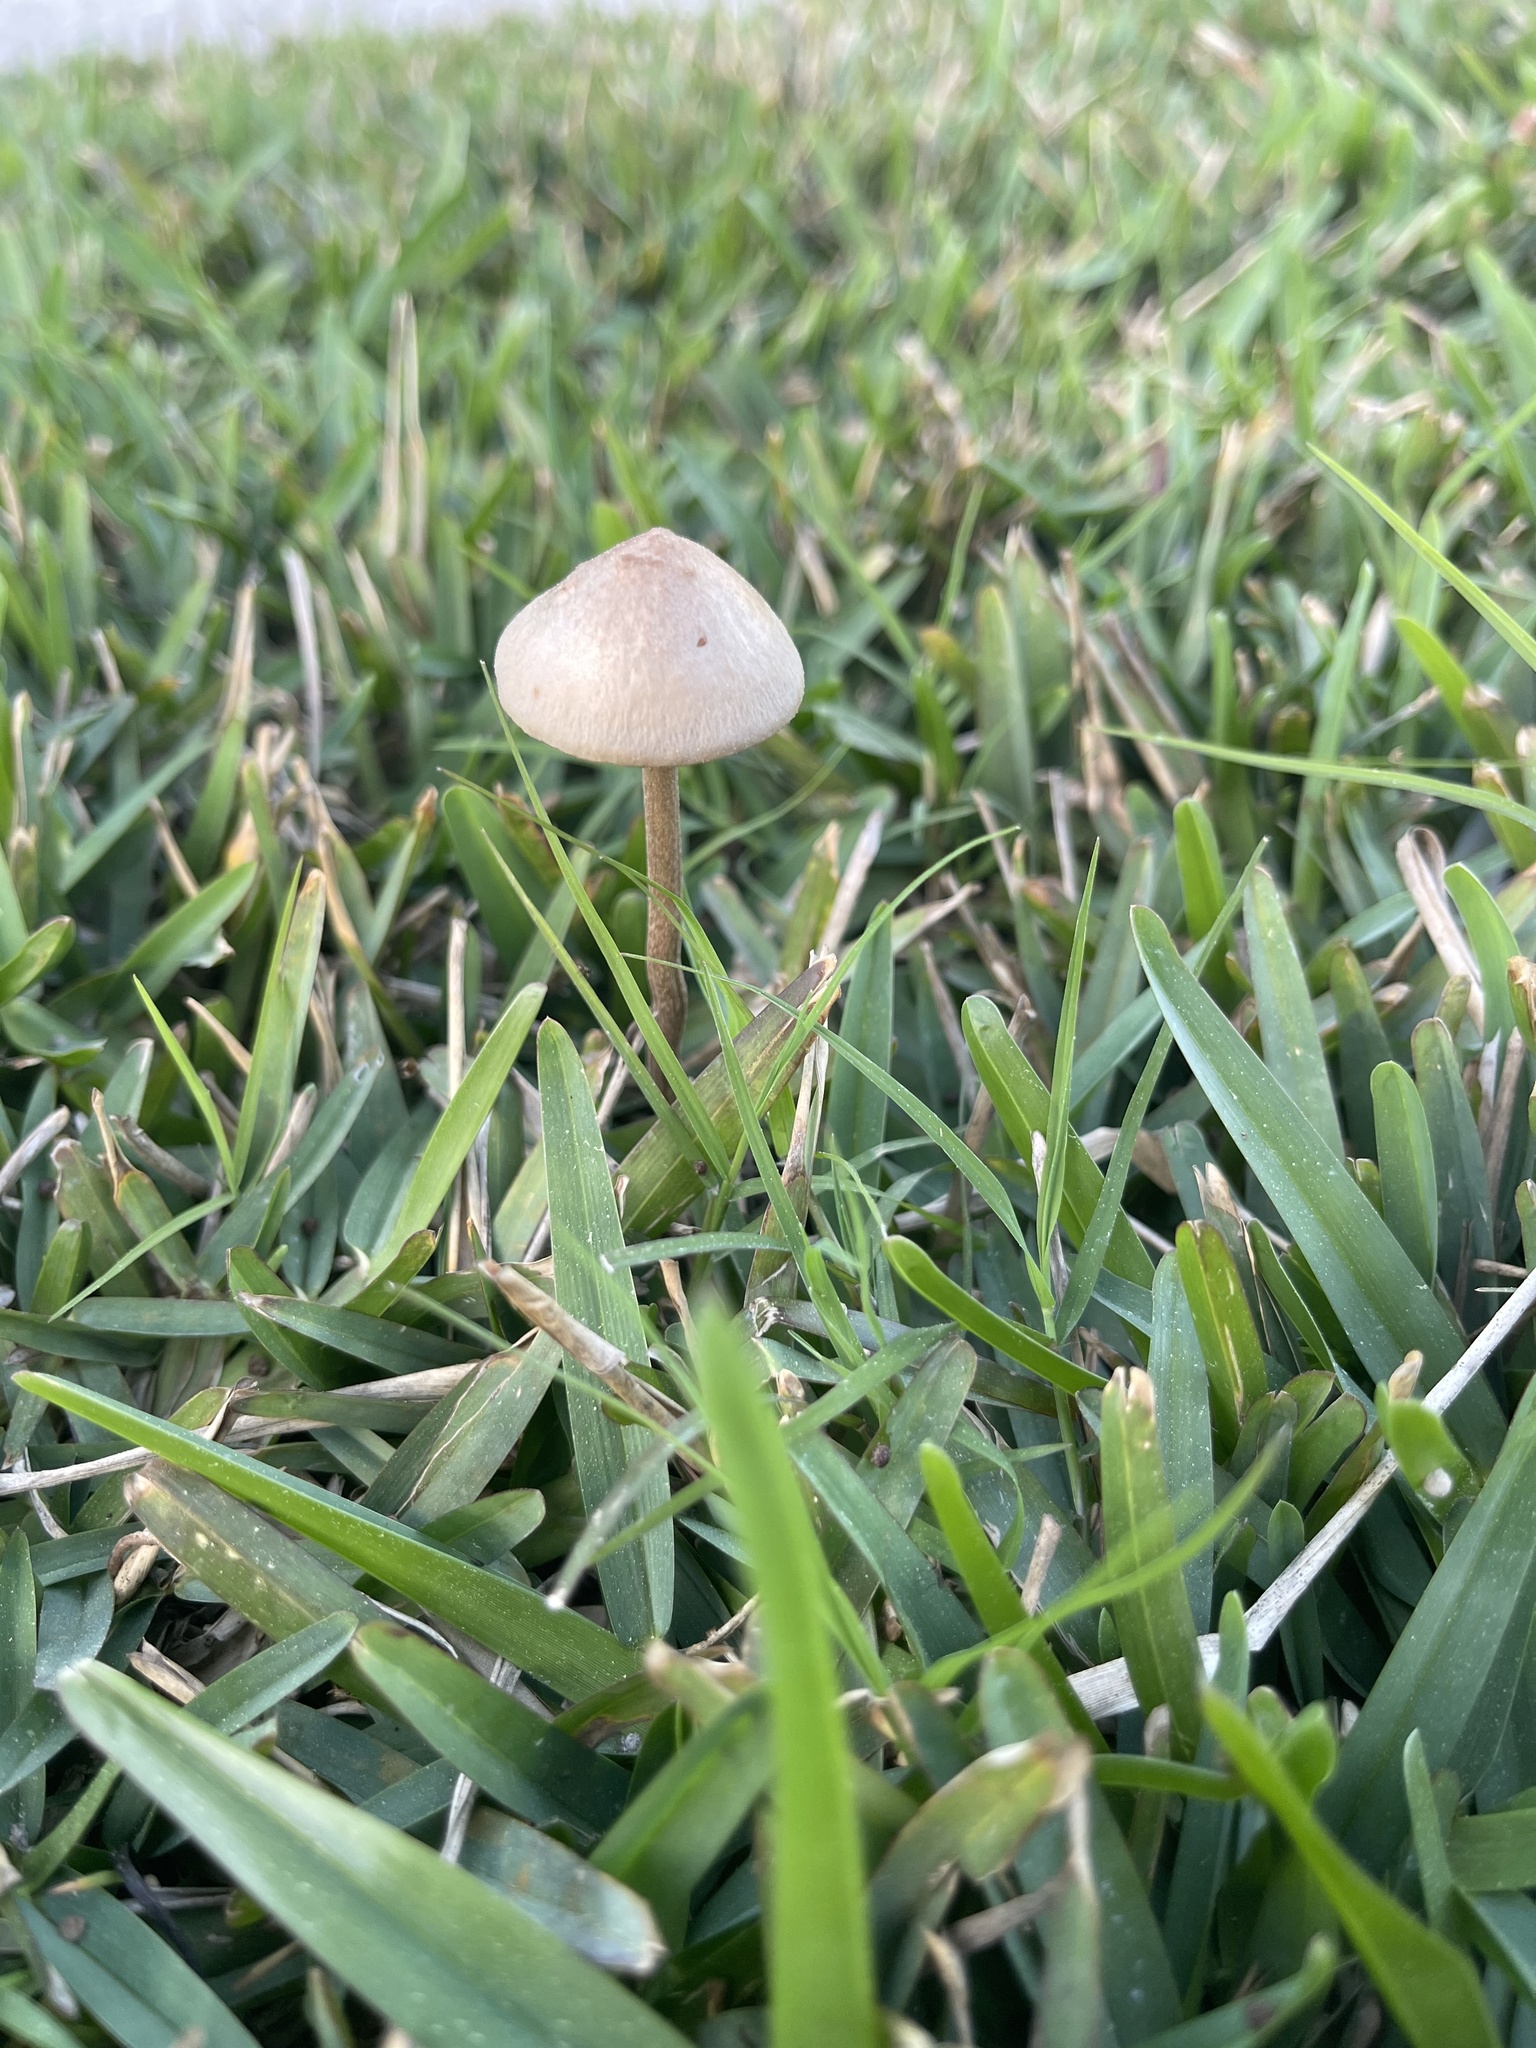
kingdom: Fungi
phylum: Basidiomycota
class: Agaricomycetes
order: Agaricales
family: Bolbitiaceae
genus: Conocybe
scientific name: Conocybe apala
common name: Milky conecap
